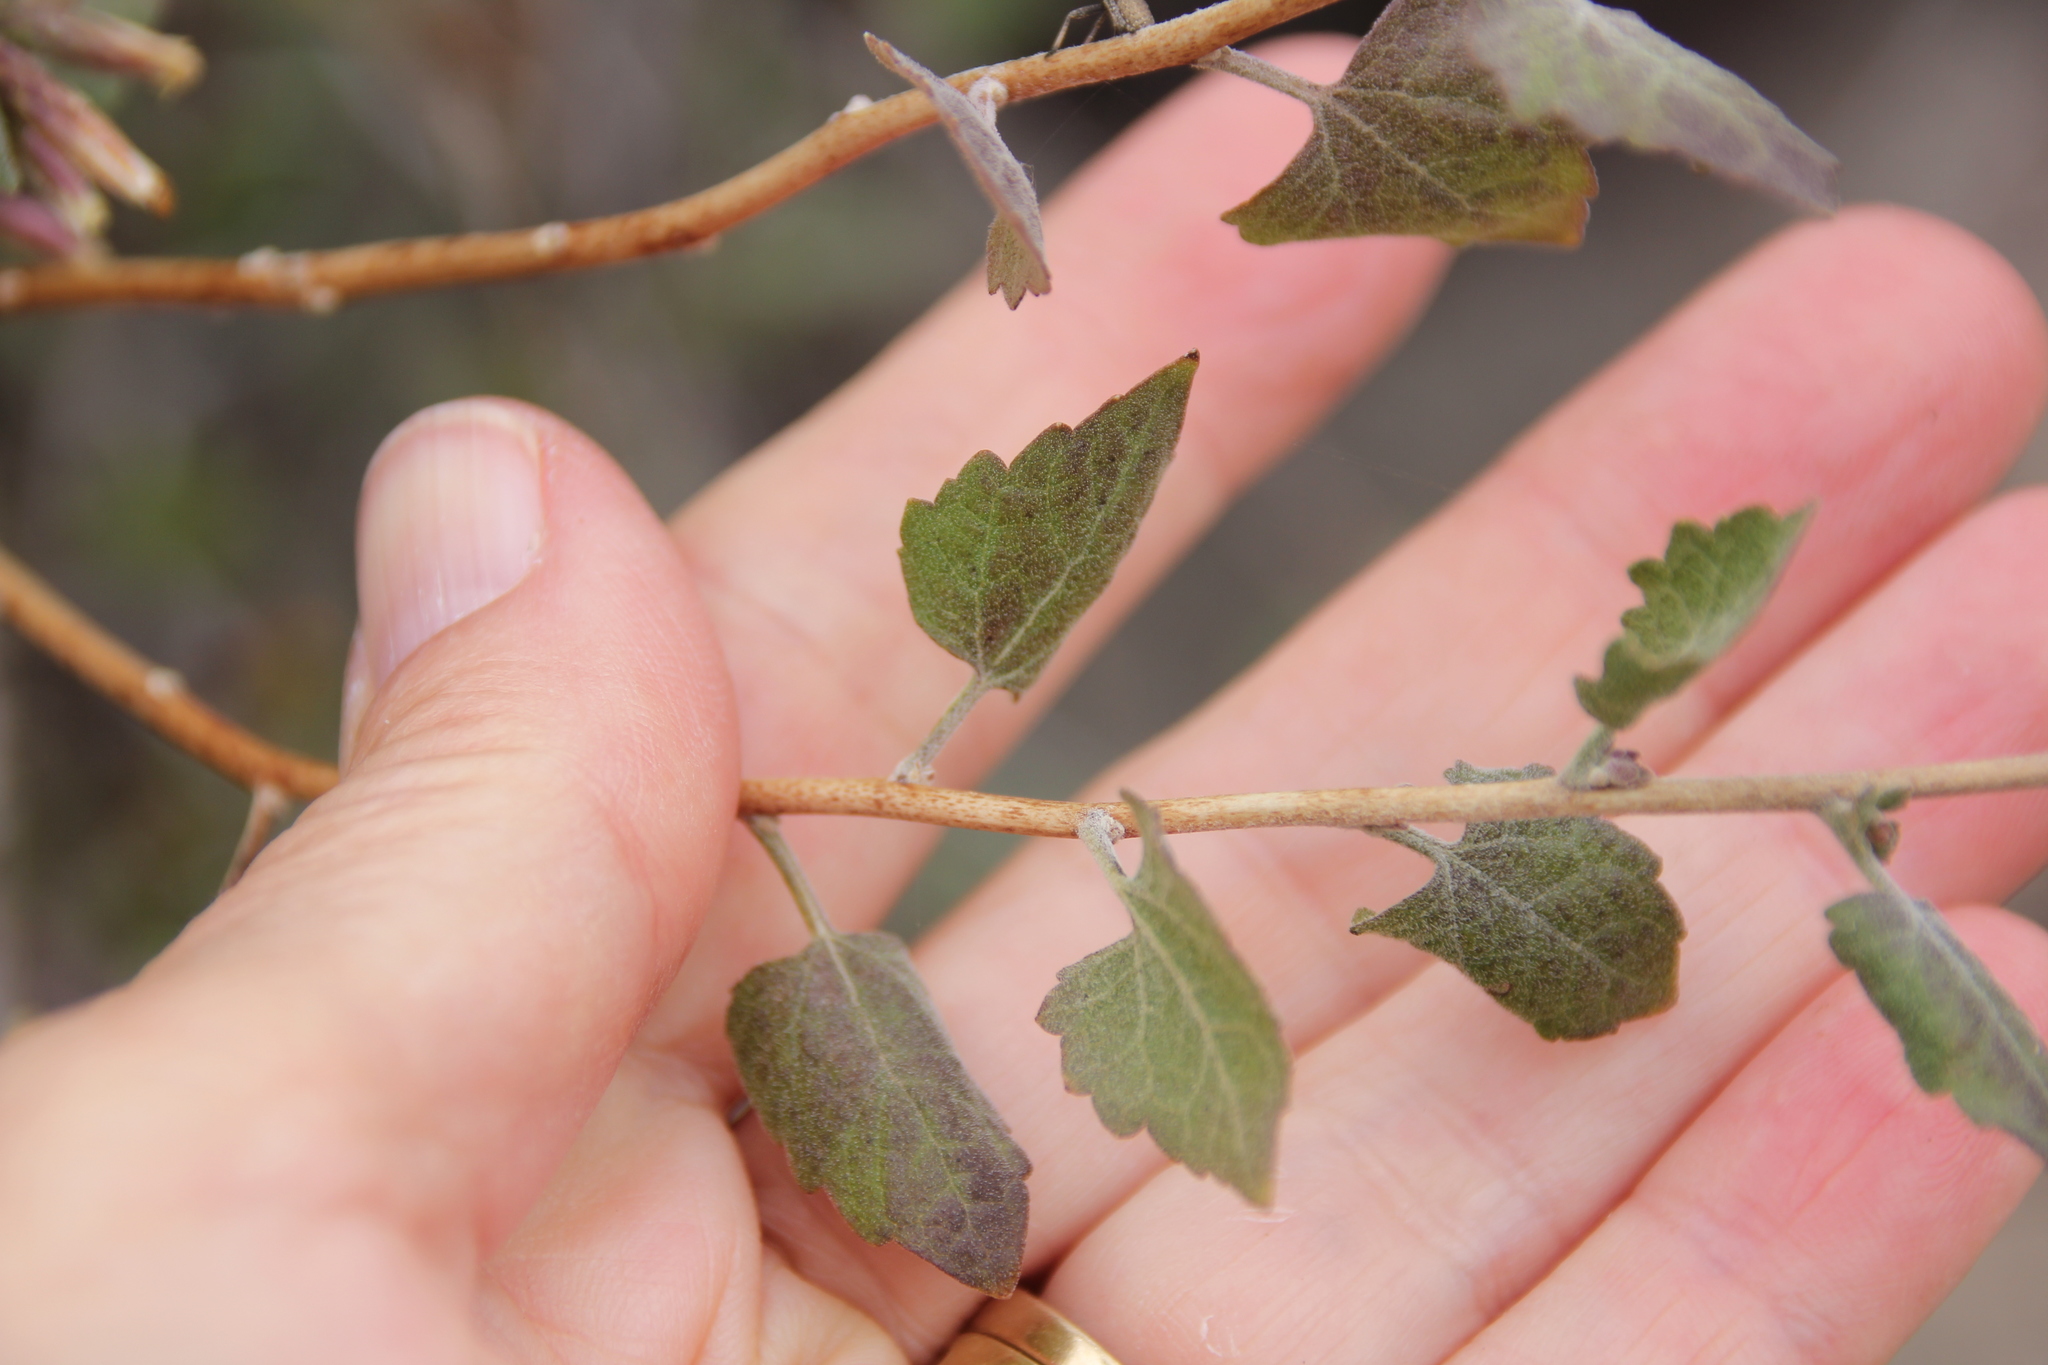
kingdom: Plantae
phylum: Tracheophyta
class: Magnoliopsida
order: Asterales
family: Asteraceae
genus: Brickellia
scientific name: Brickellia californica
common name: California brickellbush
